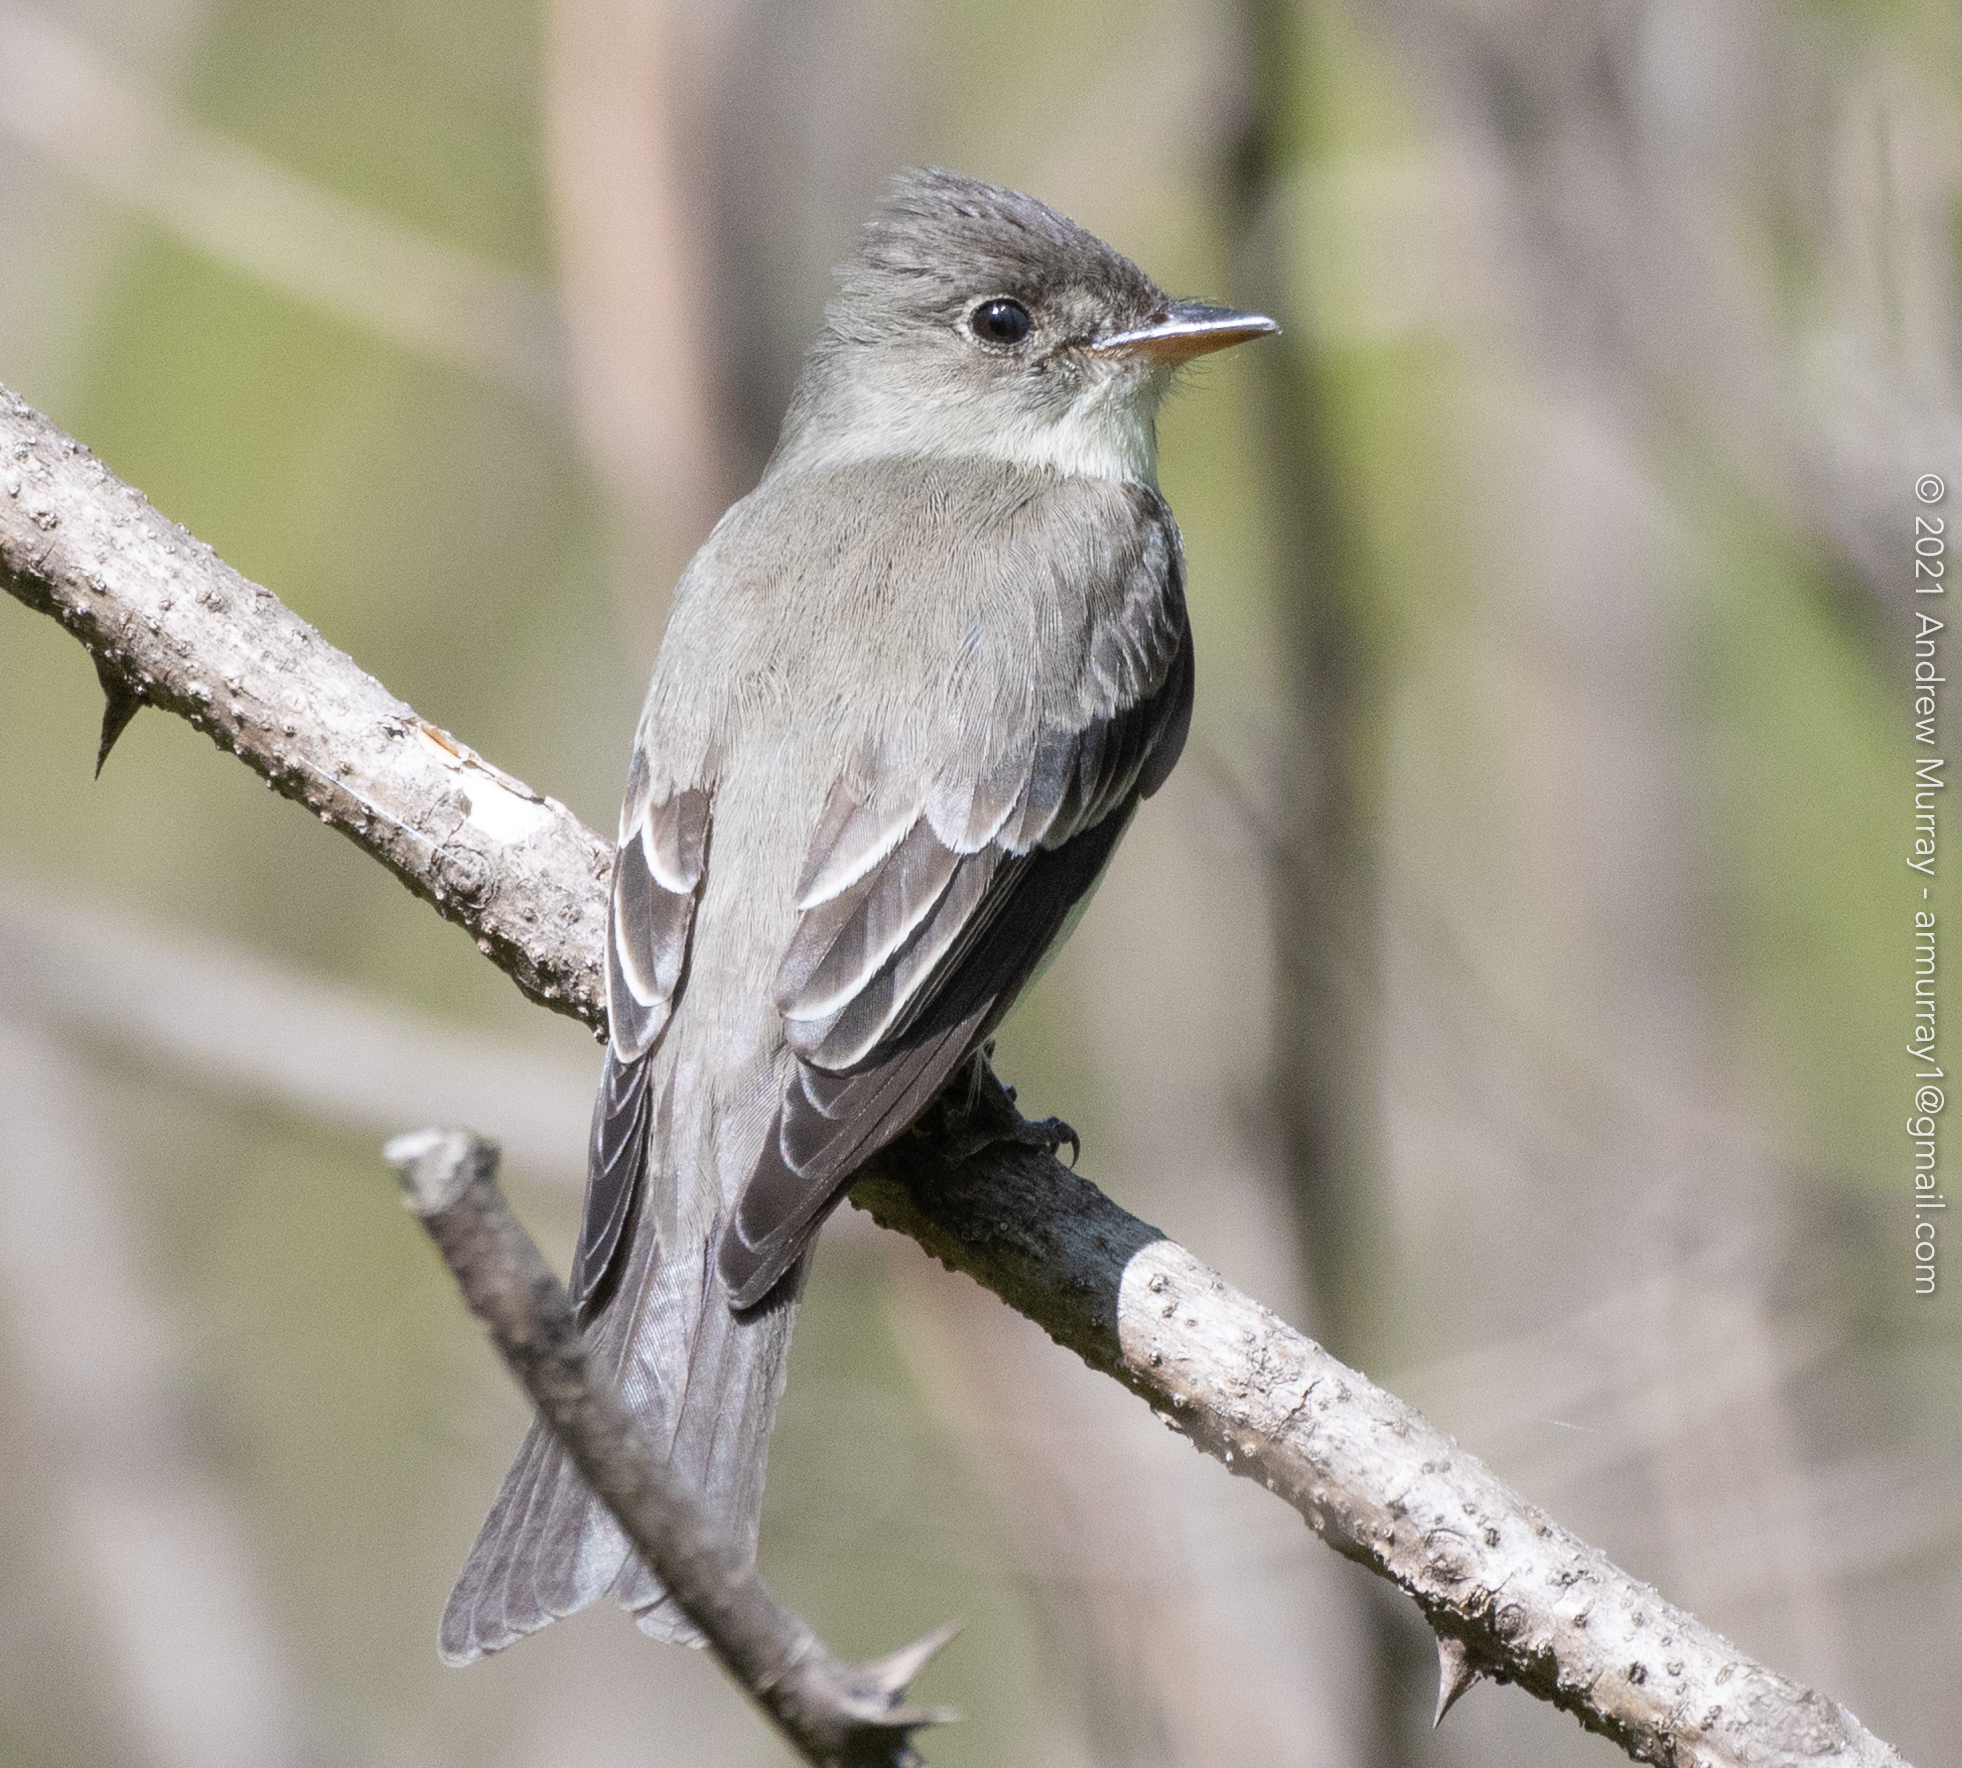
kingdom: Animalia
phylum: Chordata
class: Aves
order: Passeriformes
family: Tyrannidae
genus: Contopus
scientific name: Contopus virens
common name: Eastern wood-pewee
